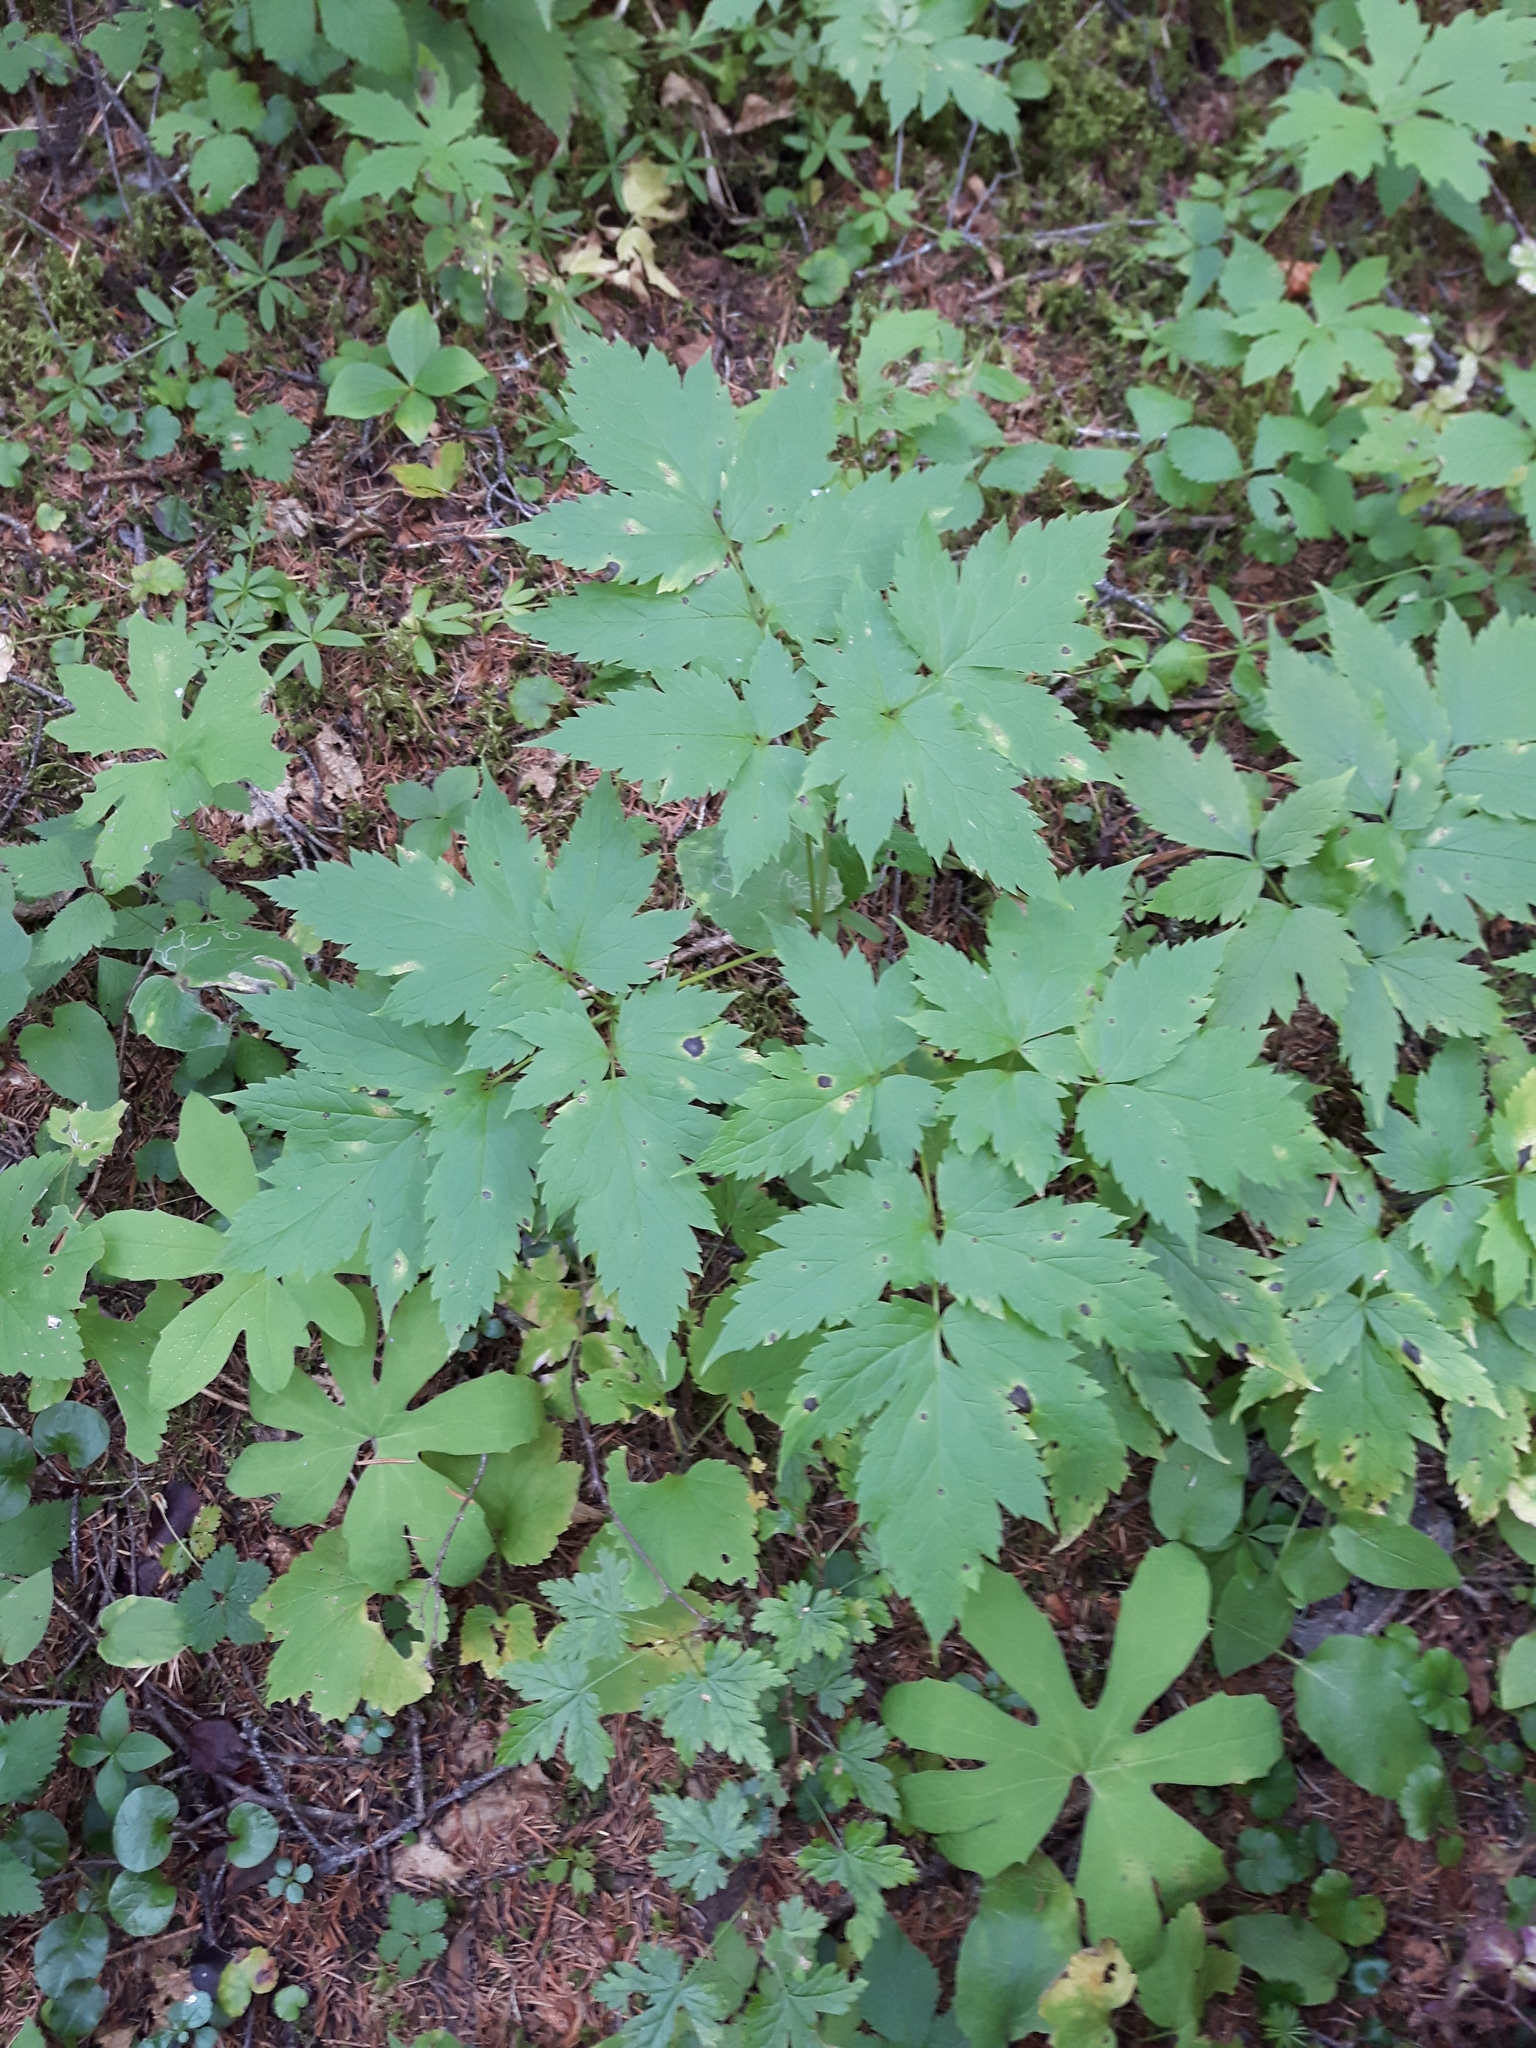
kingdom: Plantae
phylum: Tracheophyta
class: Magnoliopsida
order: Ranunculales
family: Ranunculaceae
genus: Actaea
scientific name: Actaea rubra
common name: Red baneberry
